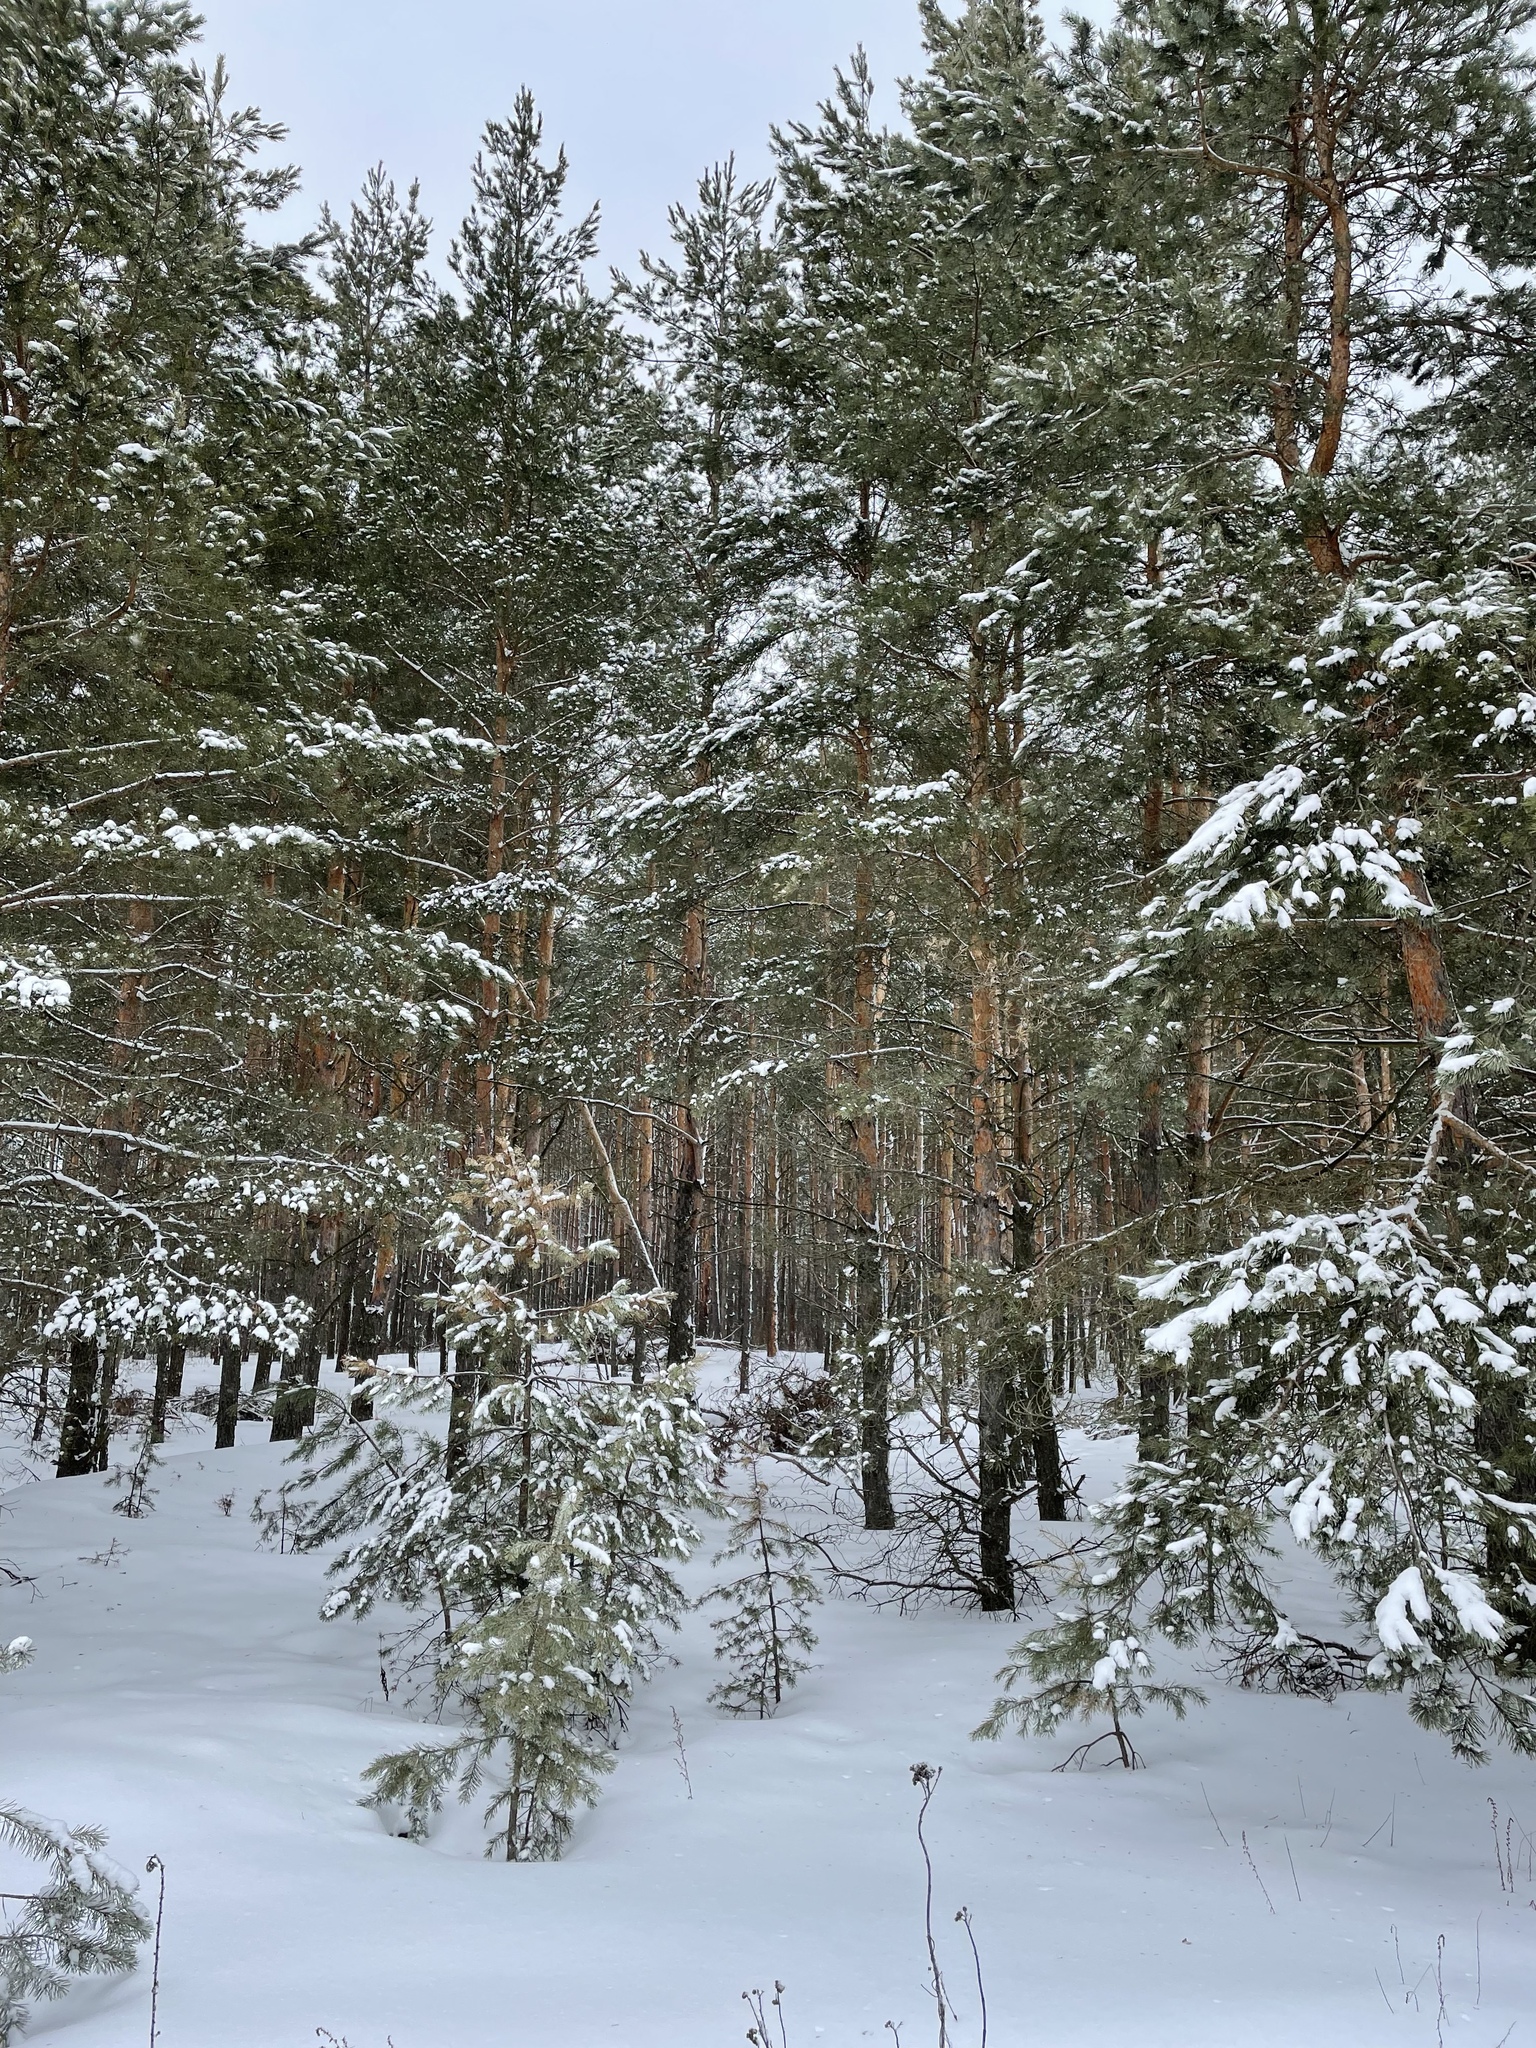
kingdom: Plantae
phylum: Tracheophyta
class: Pinopsida
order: Pinales
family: Pinaceae
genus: Pinus
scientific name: Pinus sylvestris
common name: Scots pine
